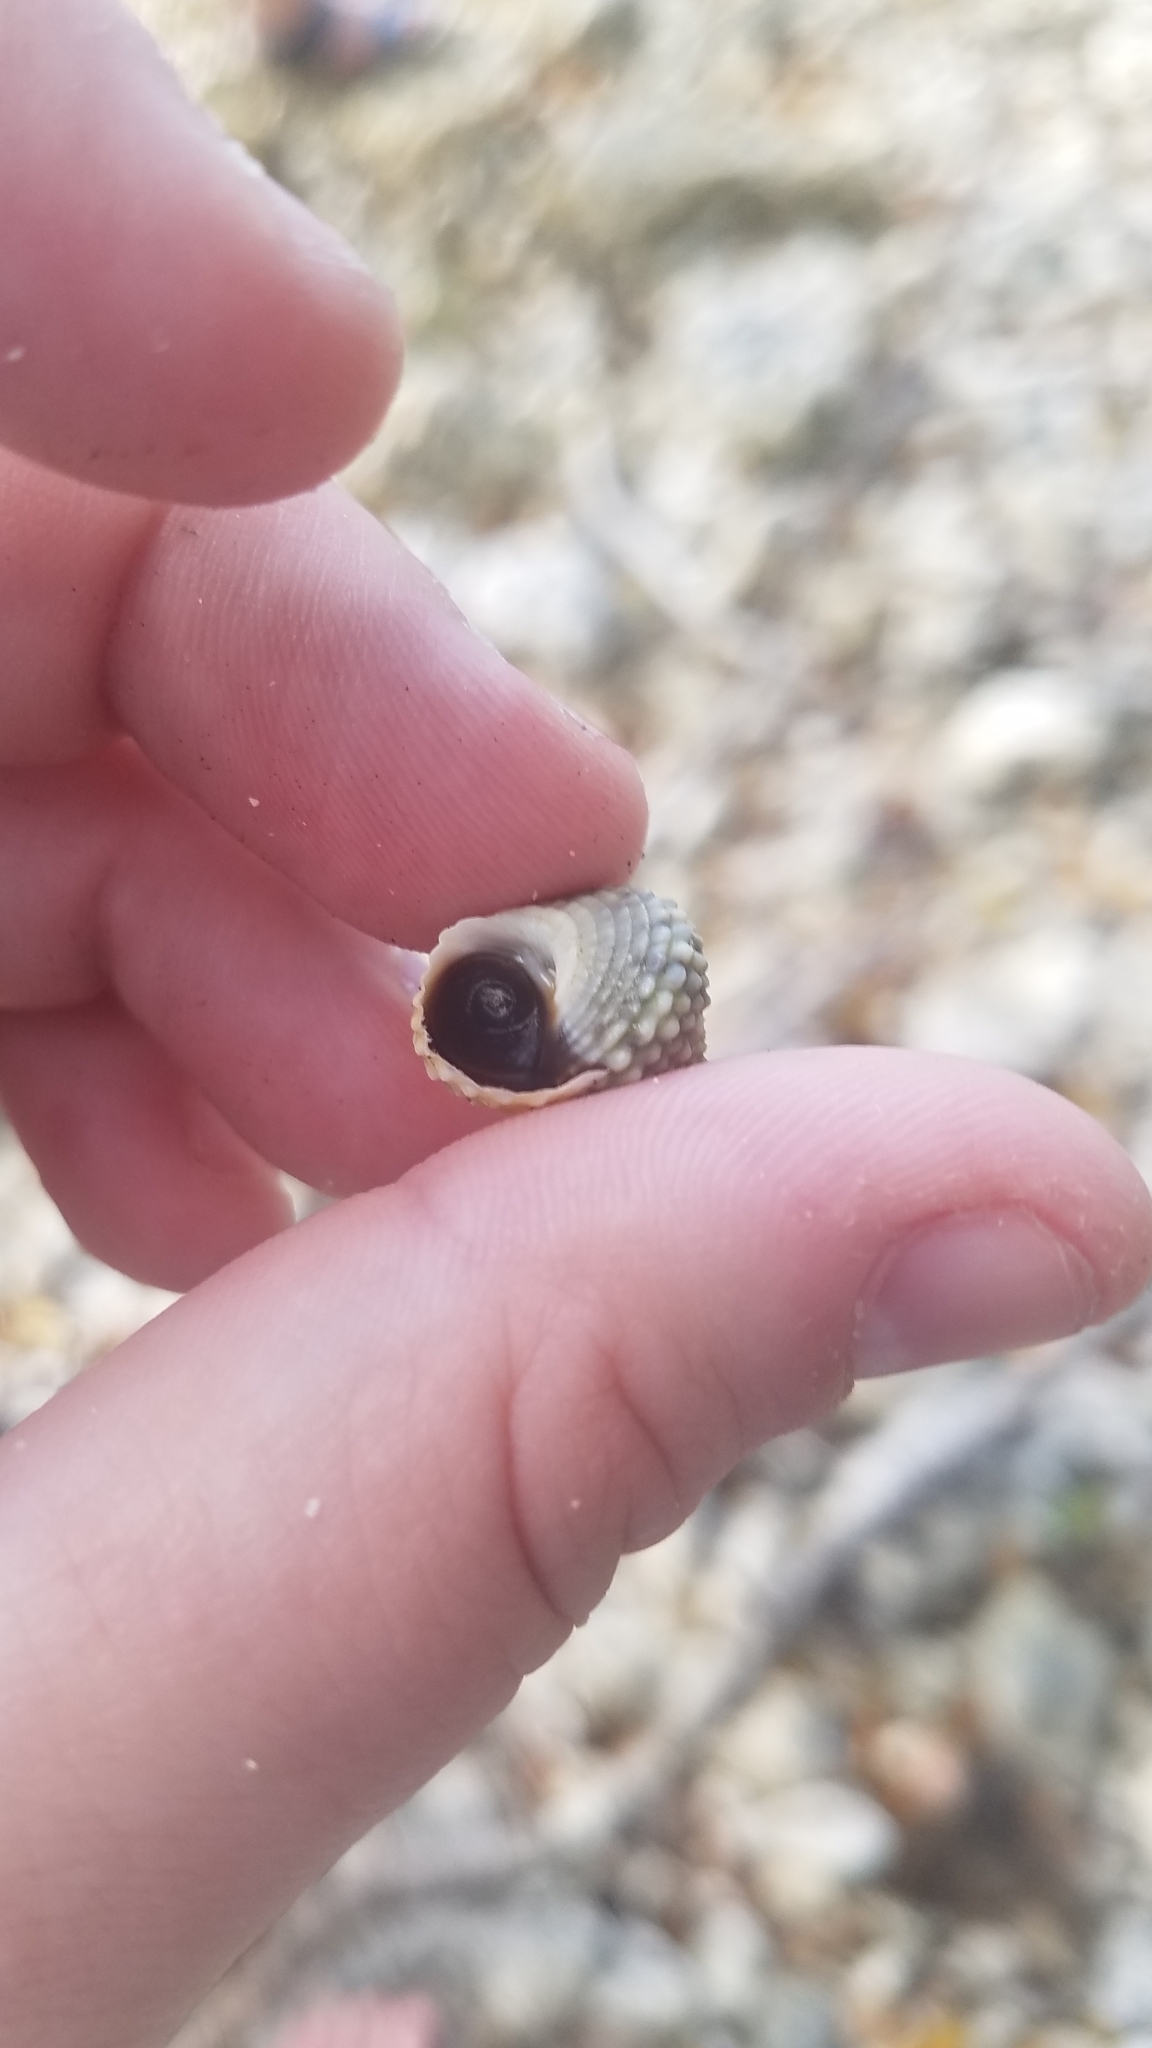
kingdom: Animalia
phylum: Mollusca
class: Gastropoda
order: Littorinimorpha
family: Littorinidae
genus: Cenchritis
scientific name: Cenchritis muricatus
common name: Beaded periwinkle
